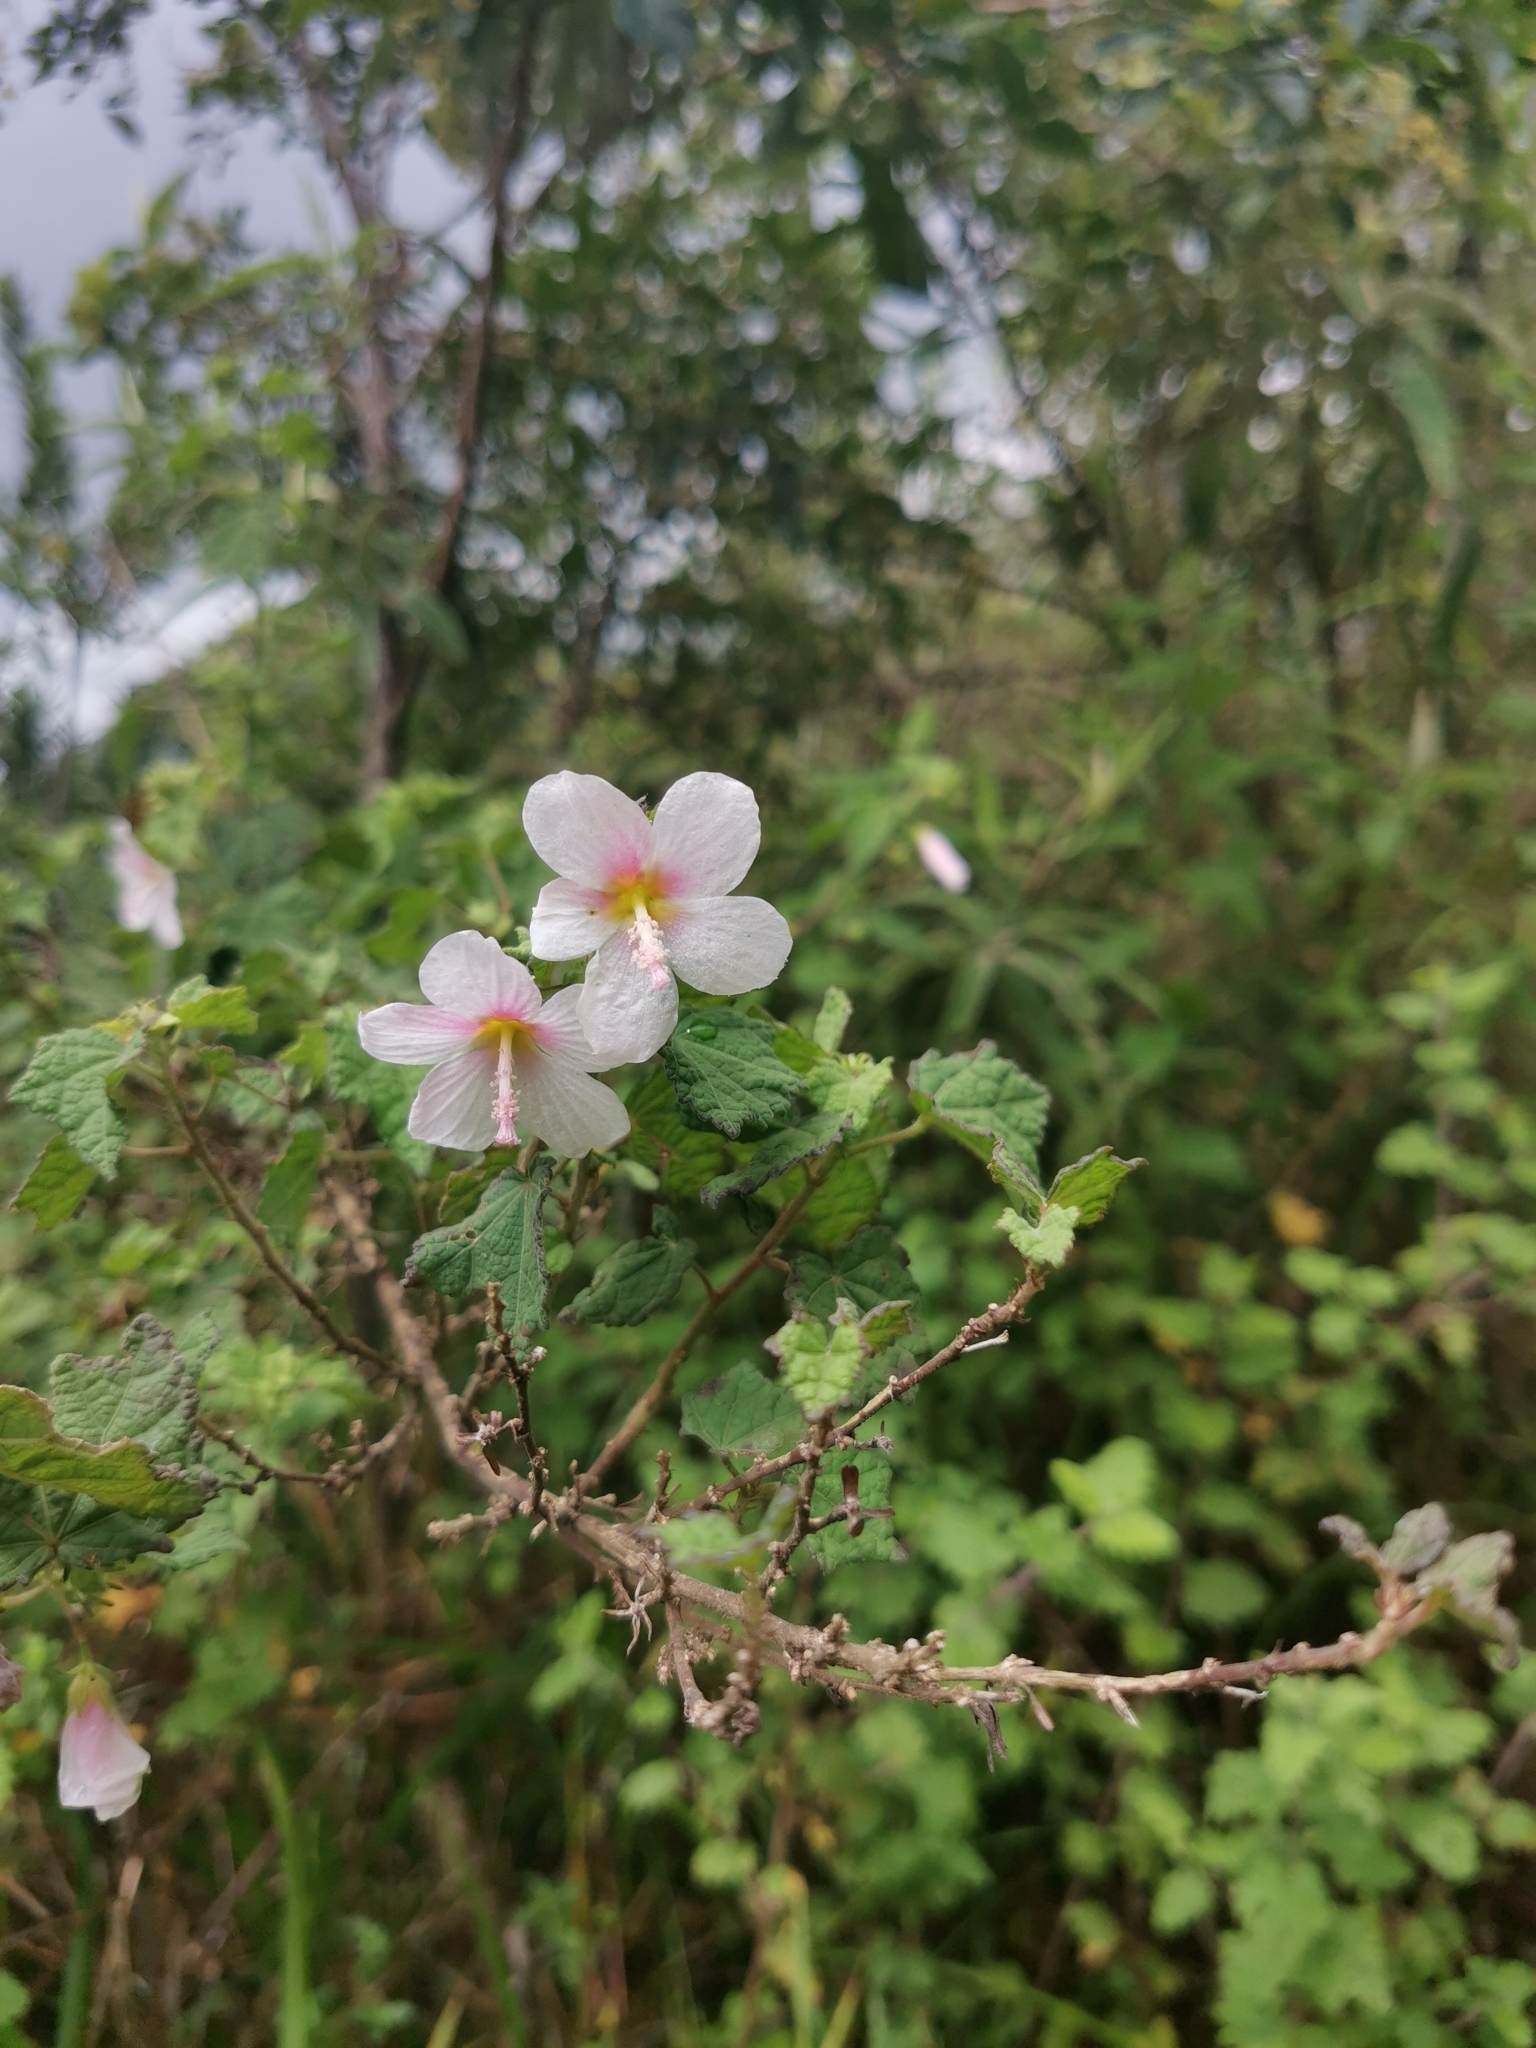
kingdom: Plantae
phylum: Tracheophyta
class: Magnoliopsida
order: Malvales
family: Malvaceae
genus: Pavonia
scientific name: Pavonia columella
